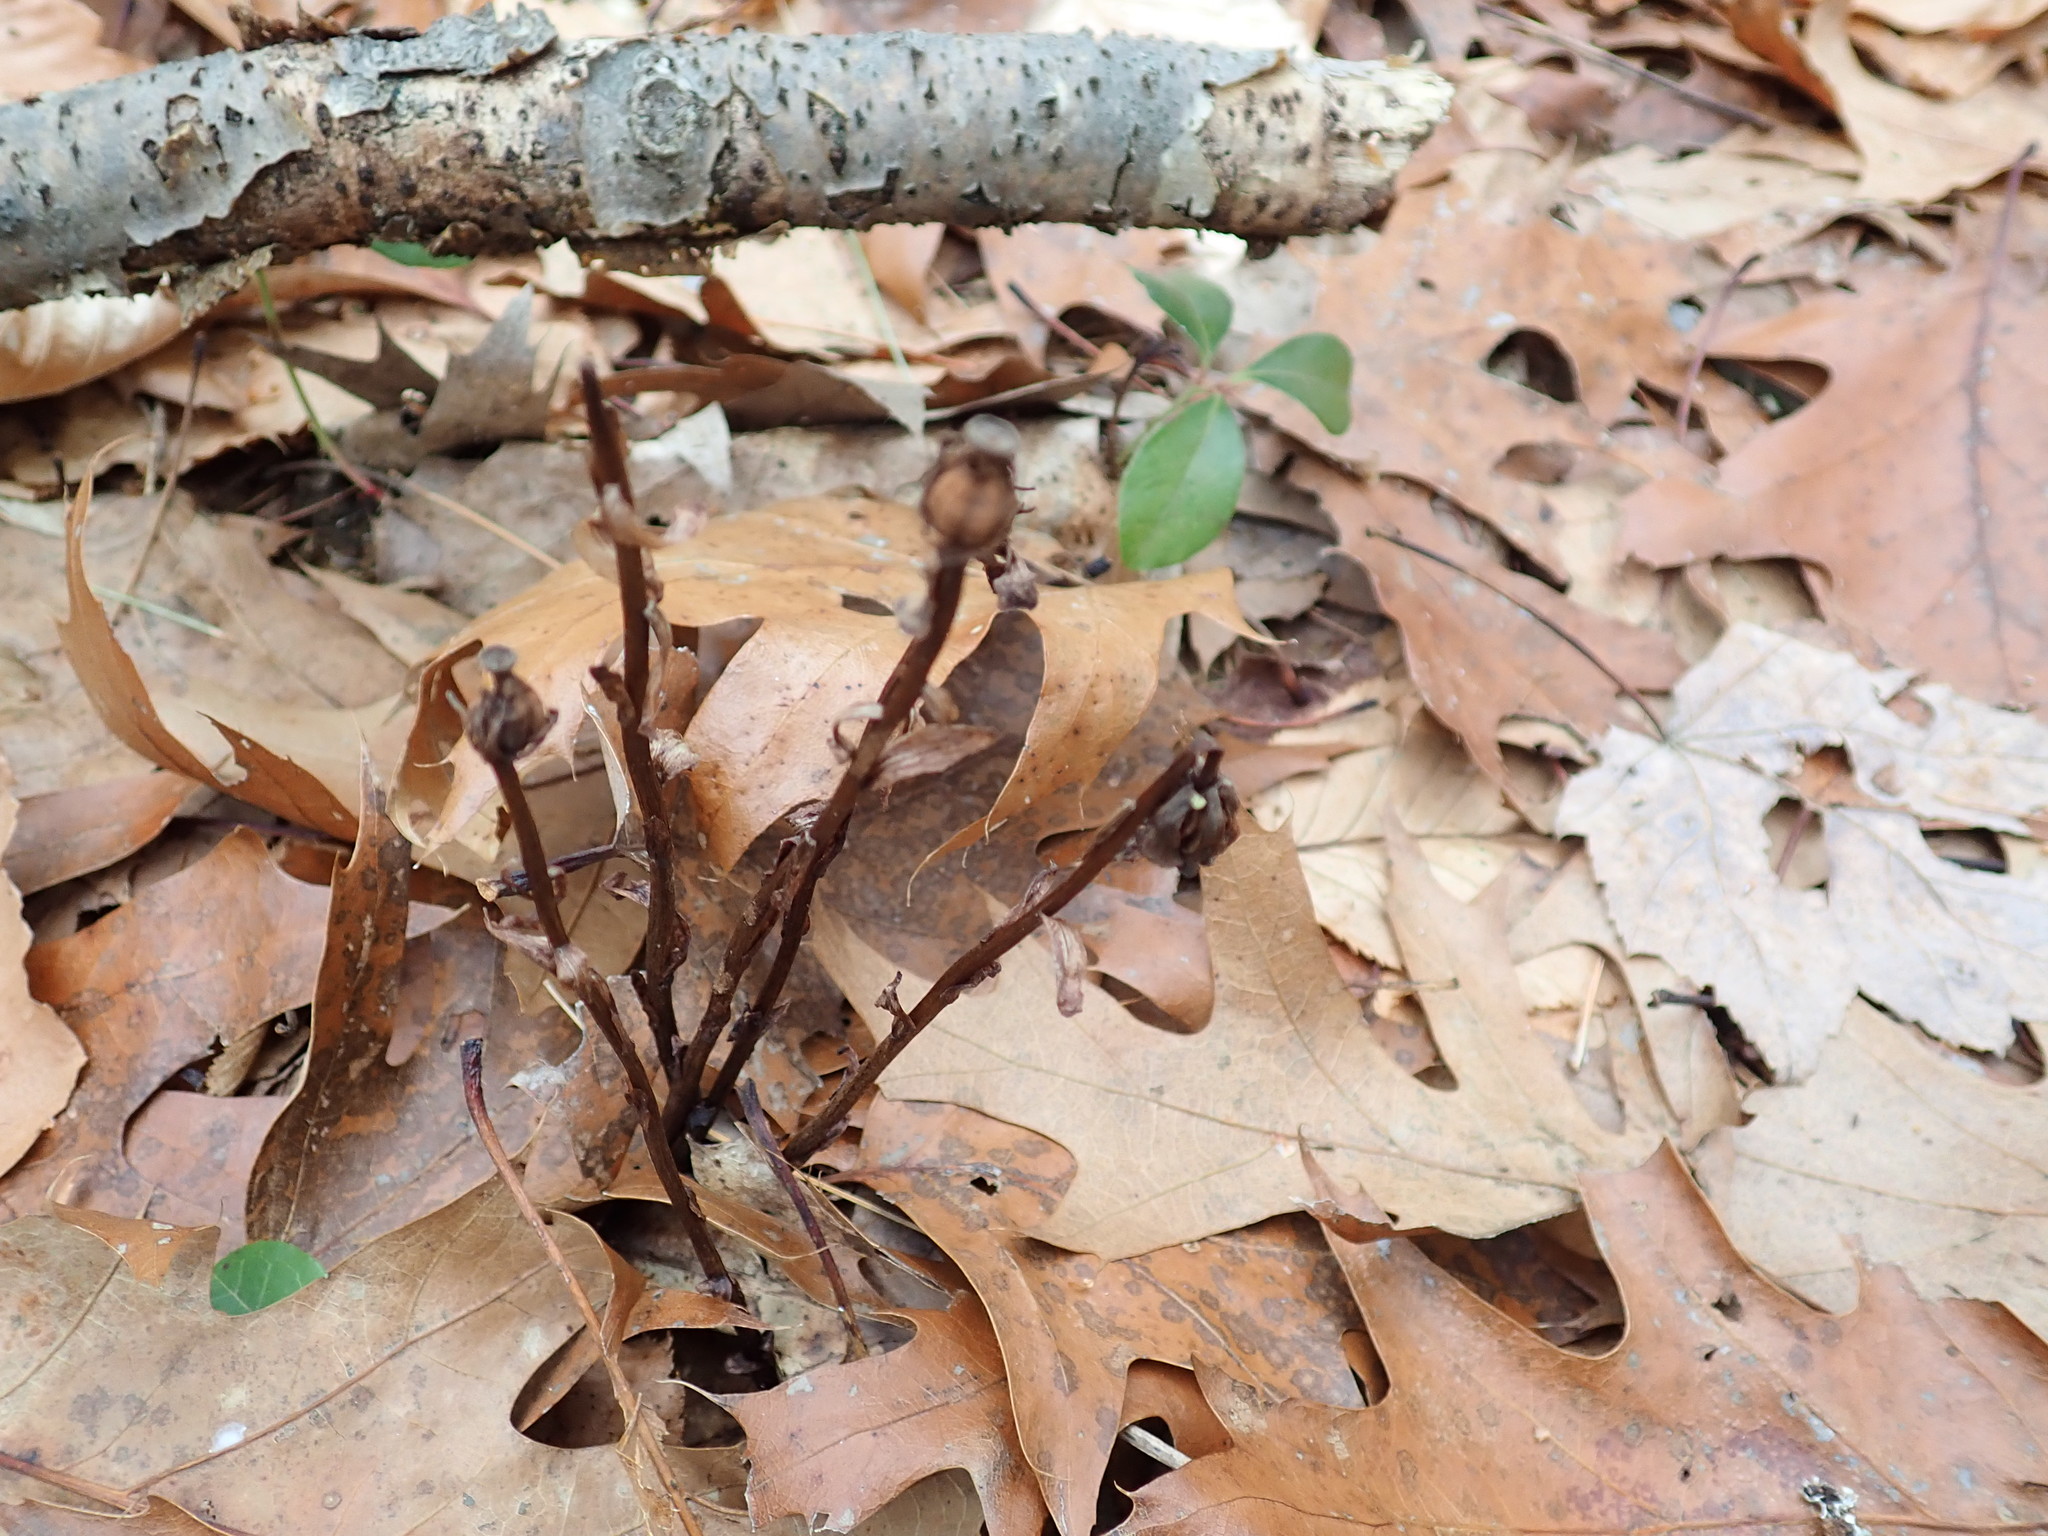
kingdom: Plantae
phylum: Tracheophyta
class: Magnoliopsida
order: Ericales
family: Ericaceae
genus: Monotropa
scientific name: Monotropa uniflora
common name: Convulsion root
